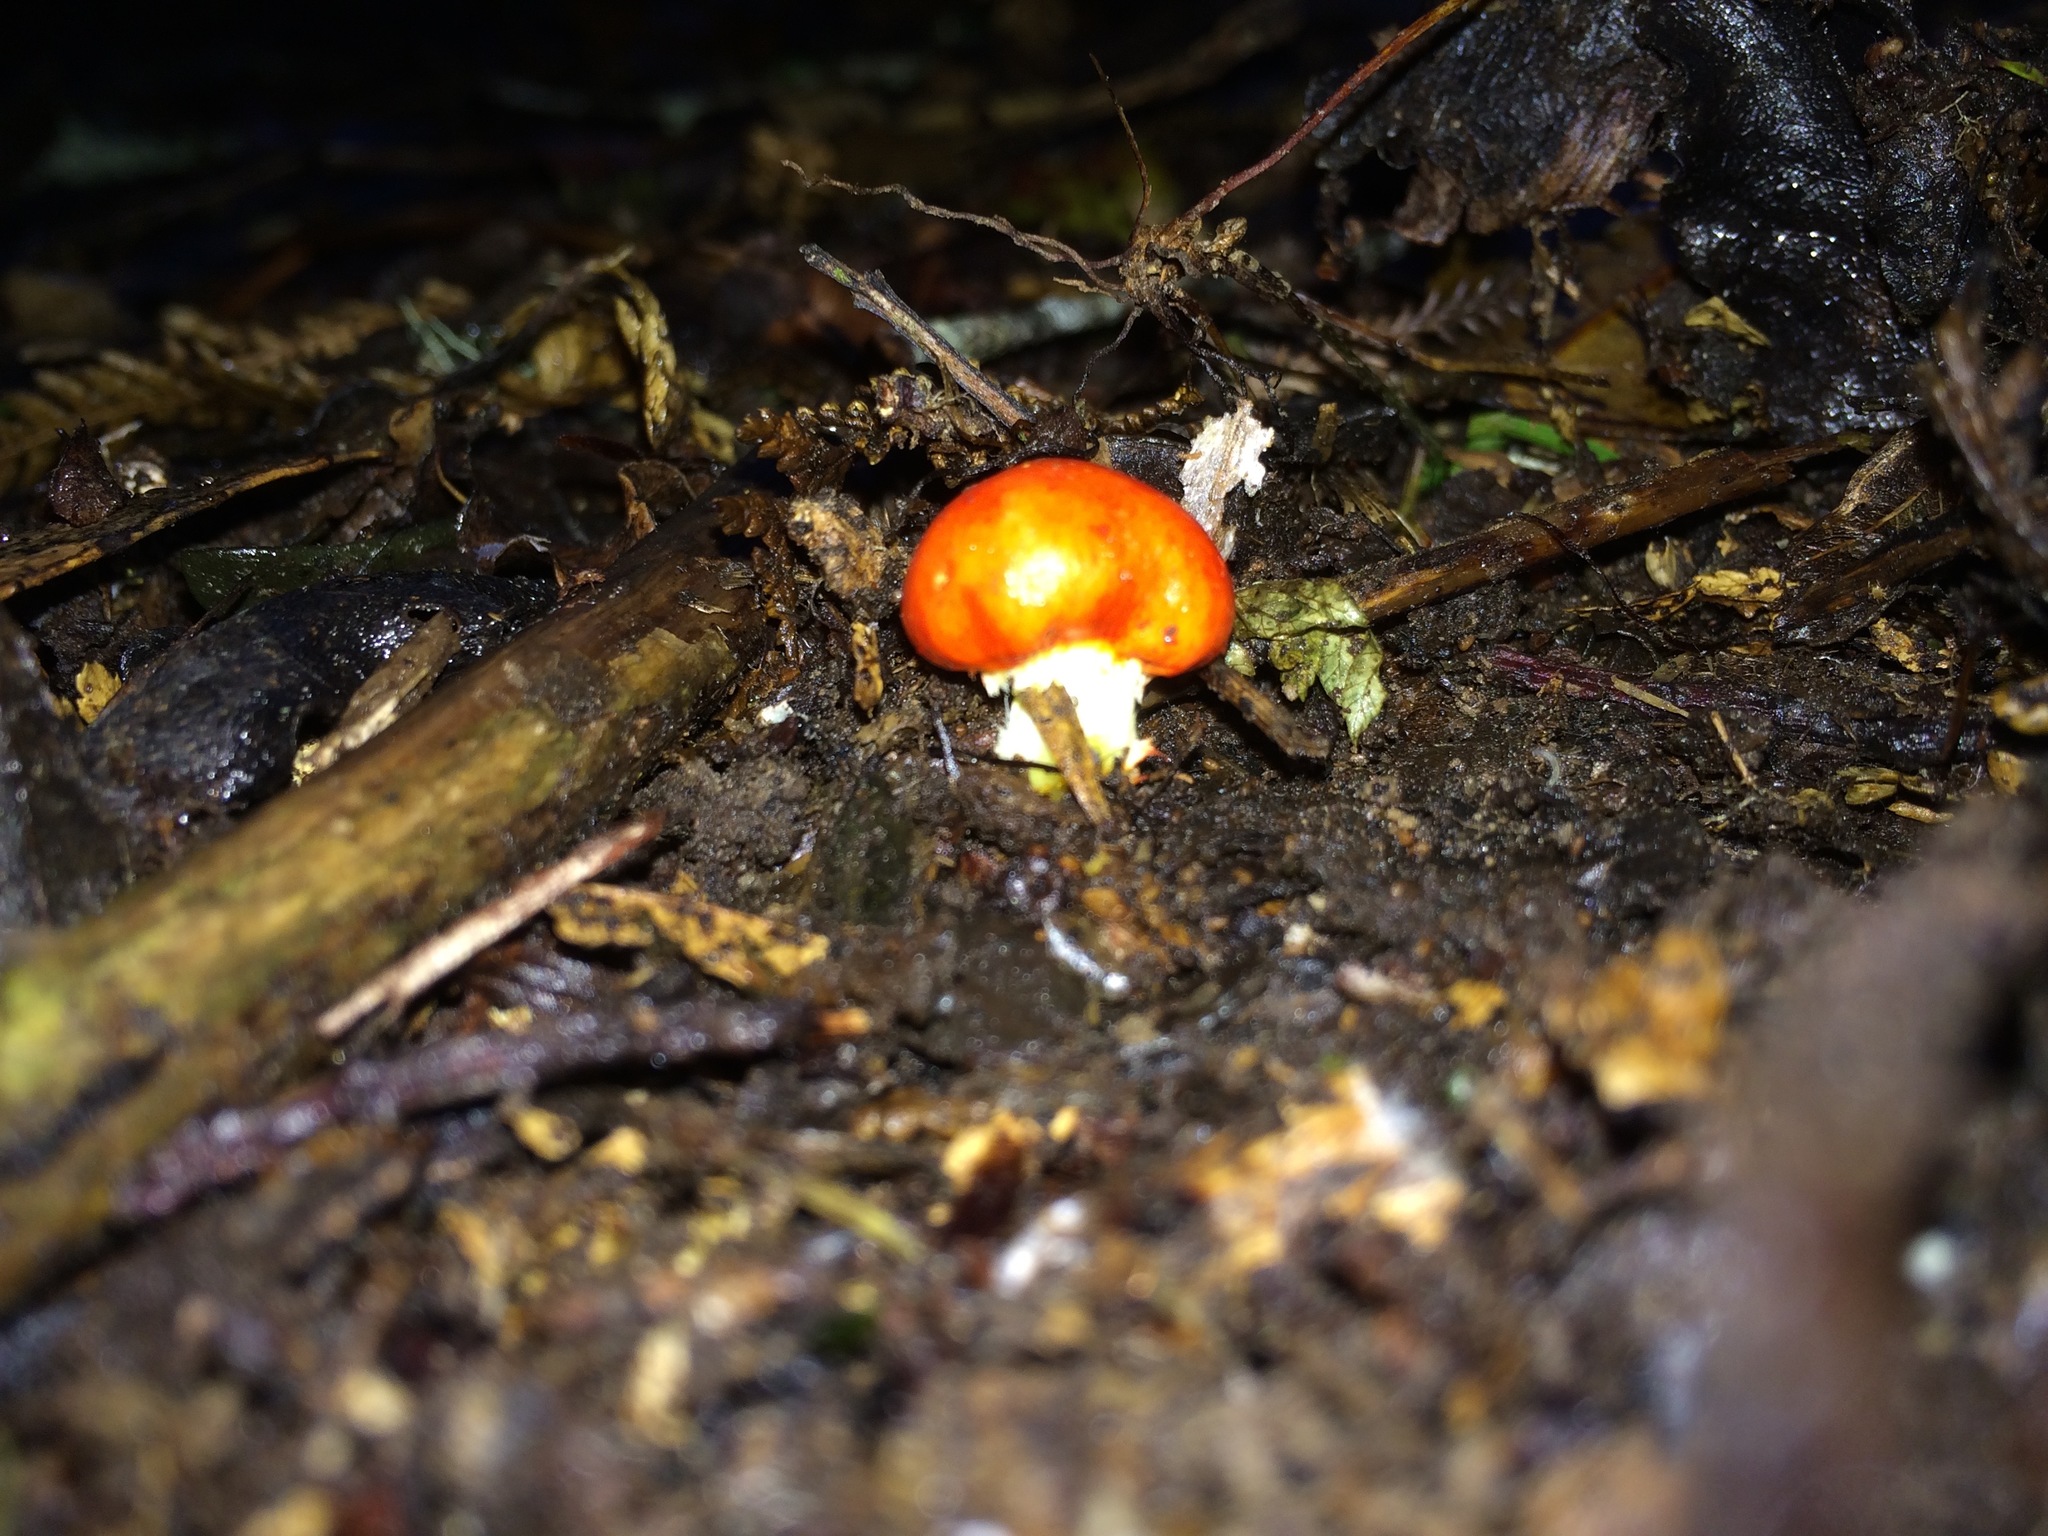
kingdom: Fungi
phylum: Basidiomycota
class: Agaricomycetes
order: Agaricales
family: Strophariaceae
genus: Leratiomyces
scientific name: Leratiomyces erythrocephalus
